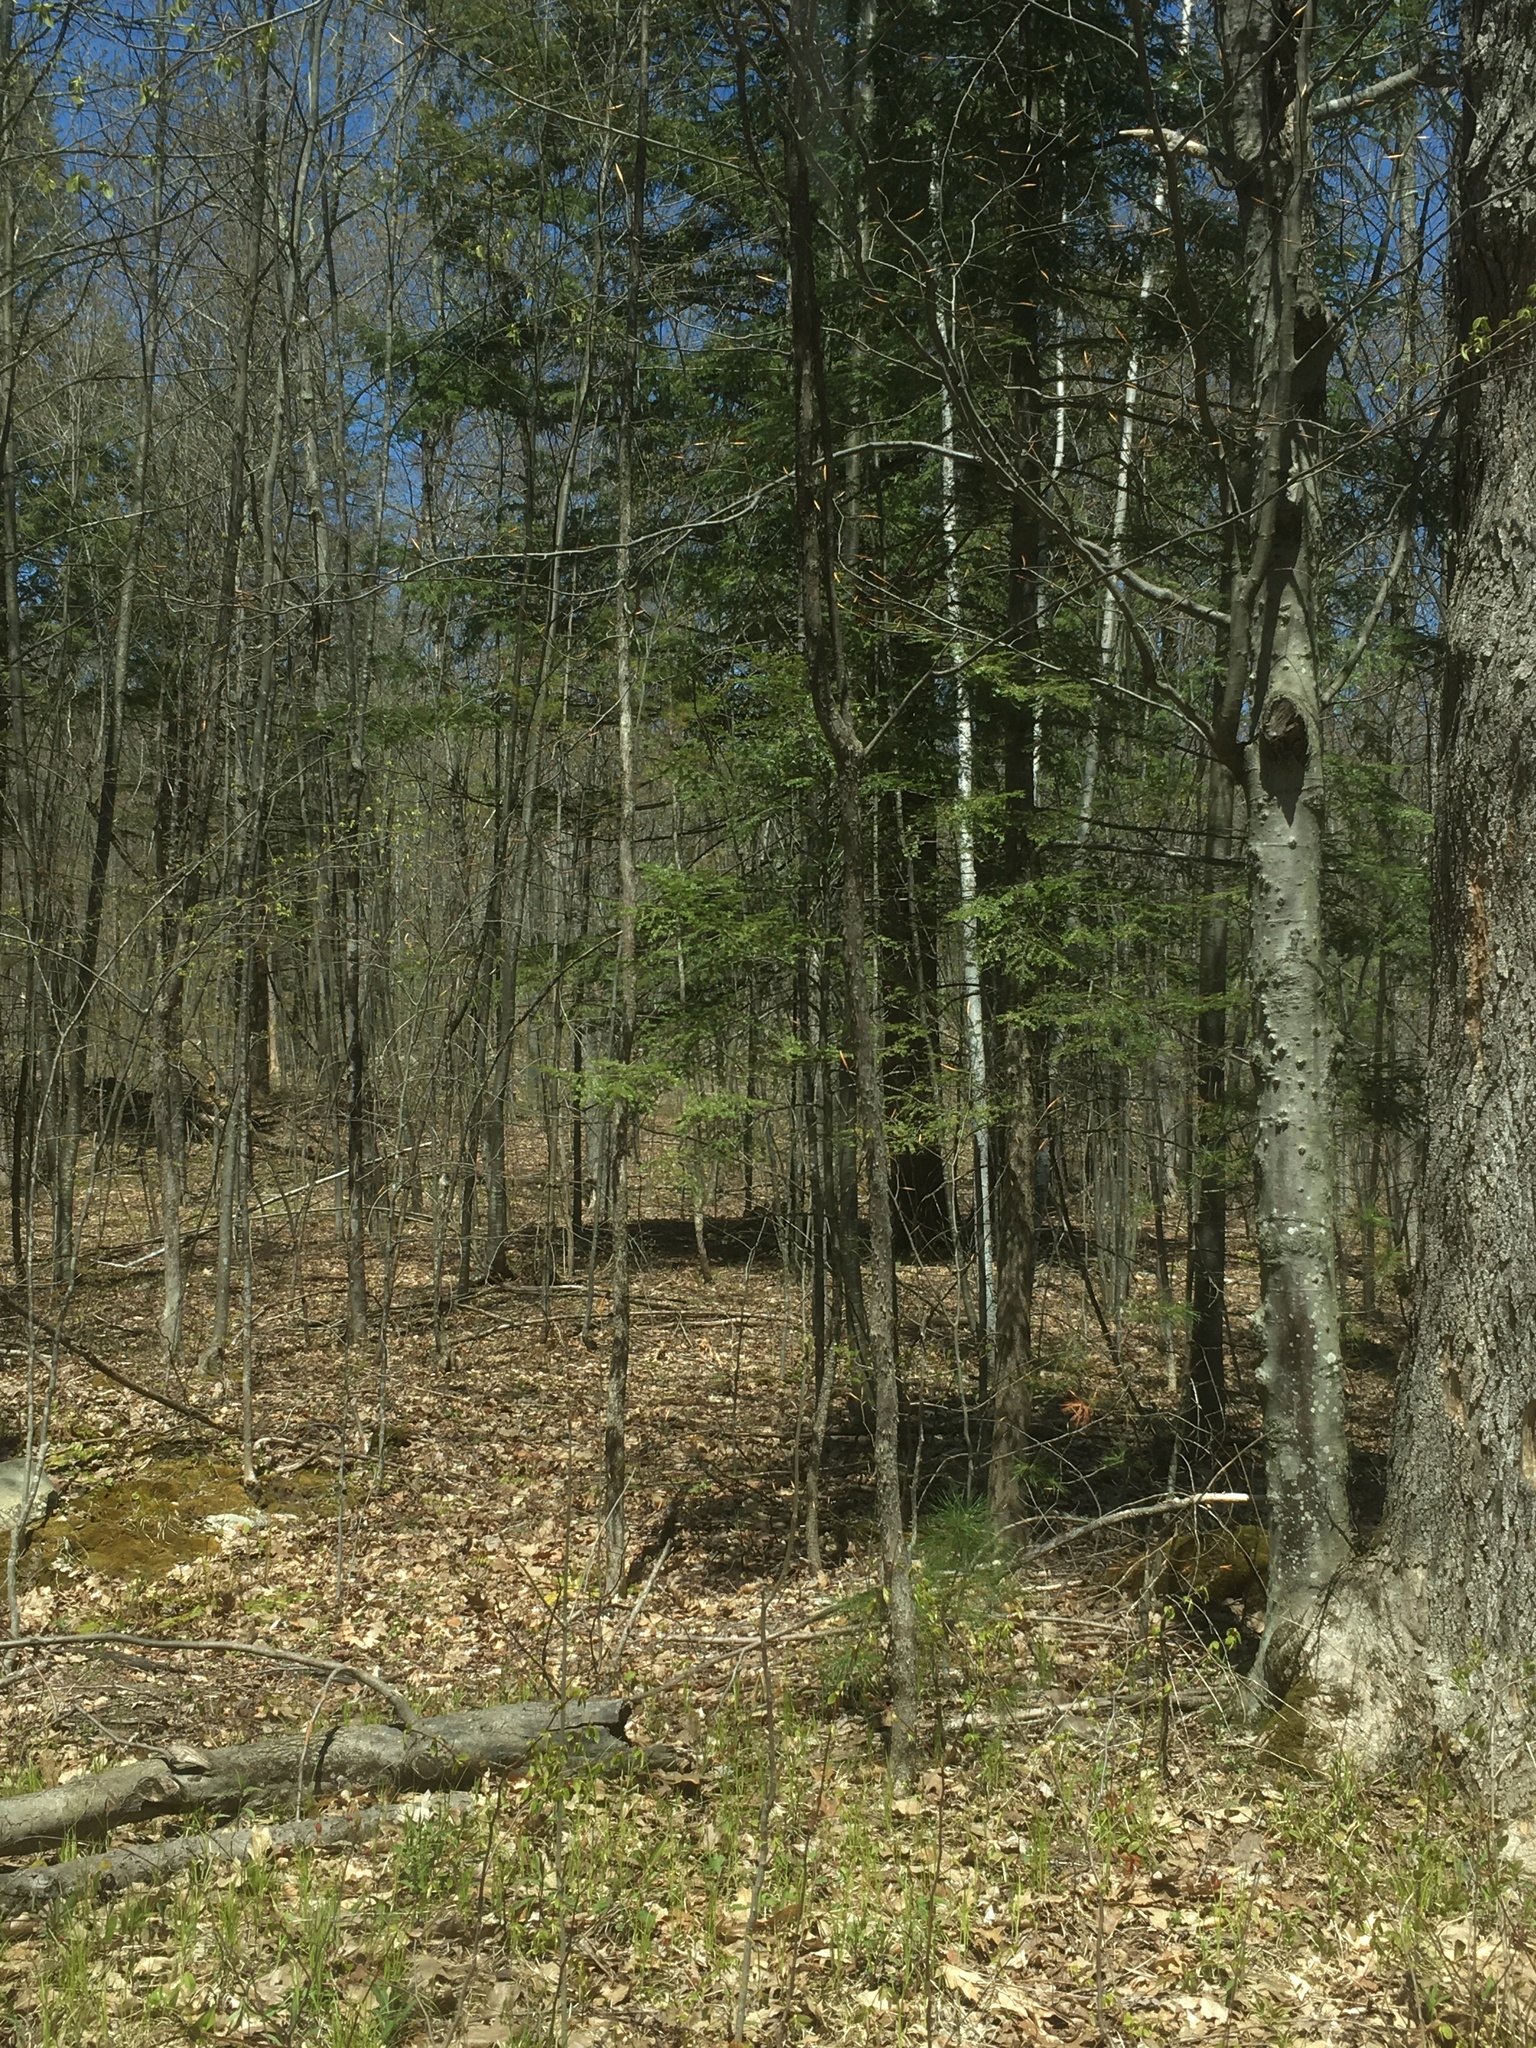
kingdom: Plantae
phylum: Tracheophyta
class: Pinopsida
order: Pinales
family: Pinaceae
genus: Tsuga
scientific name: Tsuga canadensis
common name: Eastern hemlock
